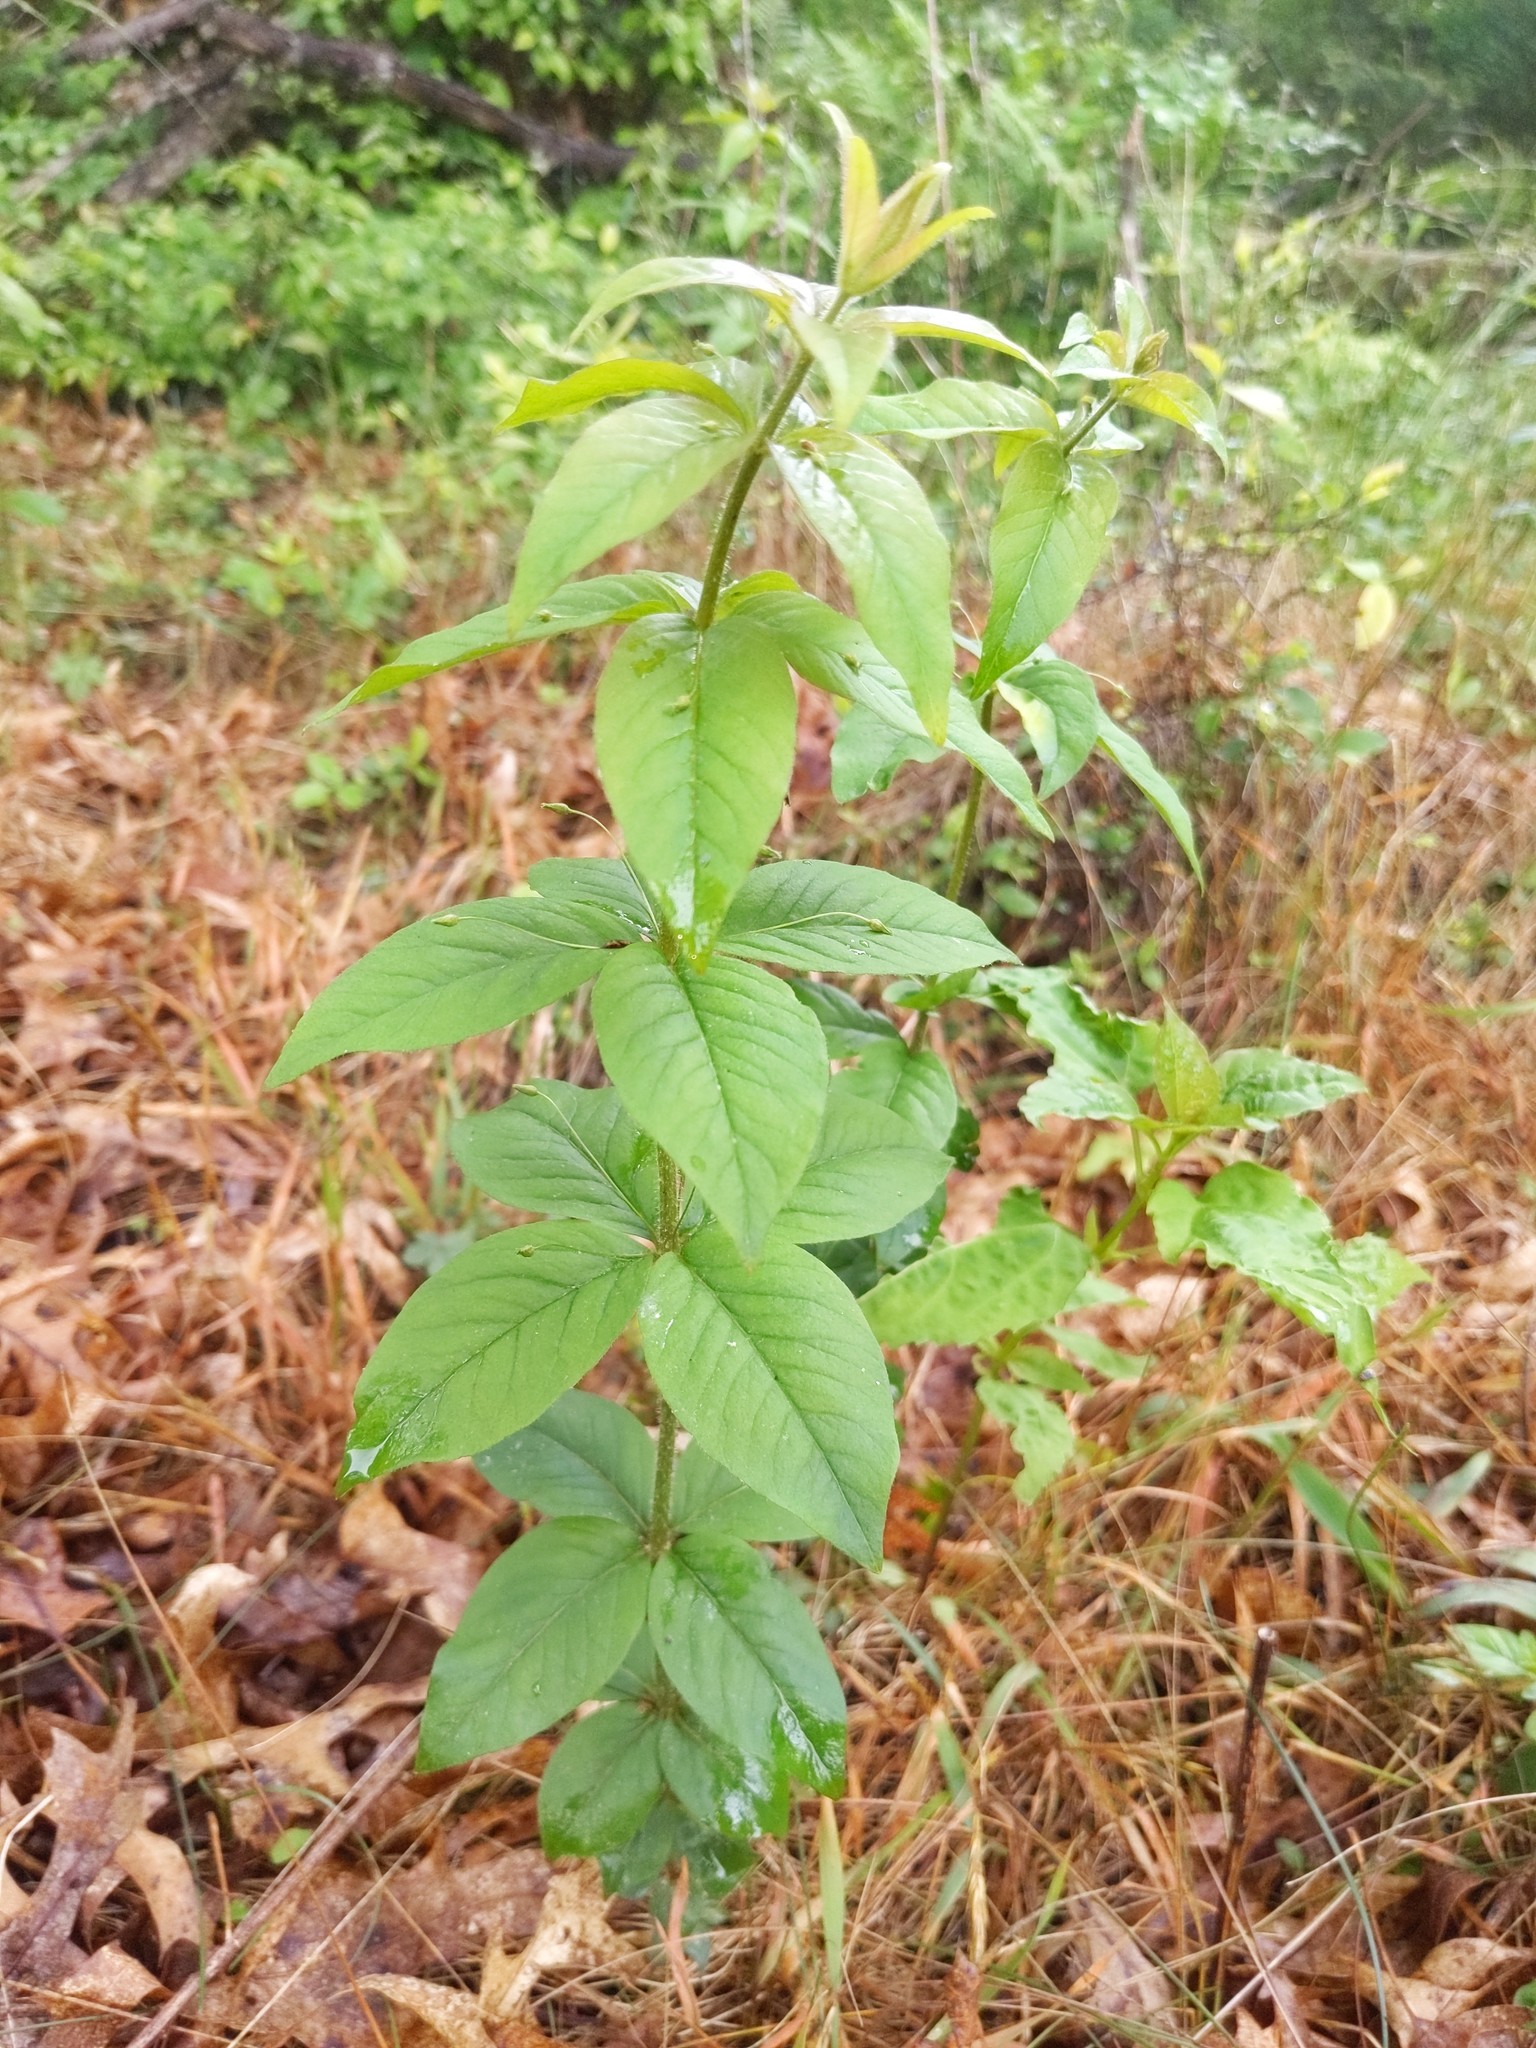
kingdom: Plantae
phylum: Tracheophyta
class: Magnoliopsida
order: Ericales
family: Primulaceae
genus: Lysimachia
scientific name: Lysimachia quadrifolia
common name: Whorled loosestrife
